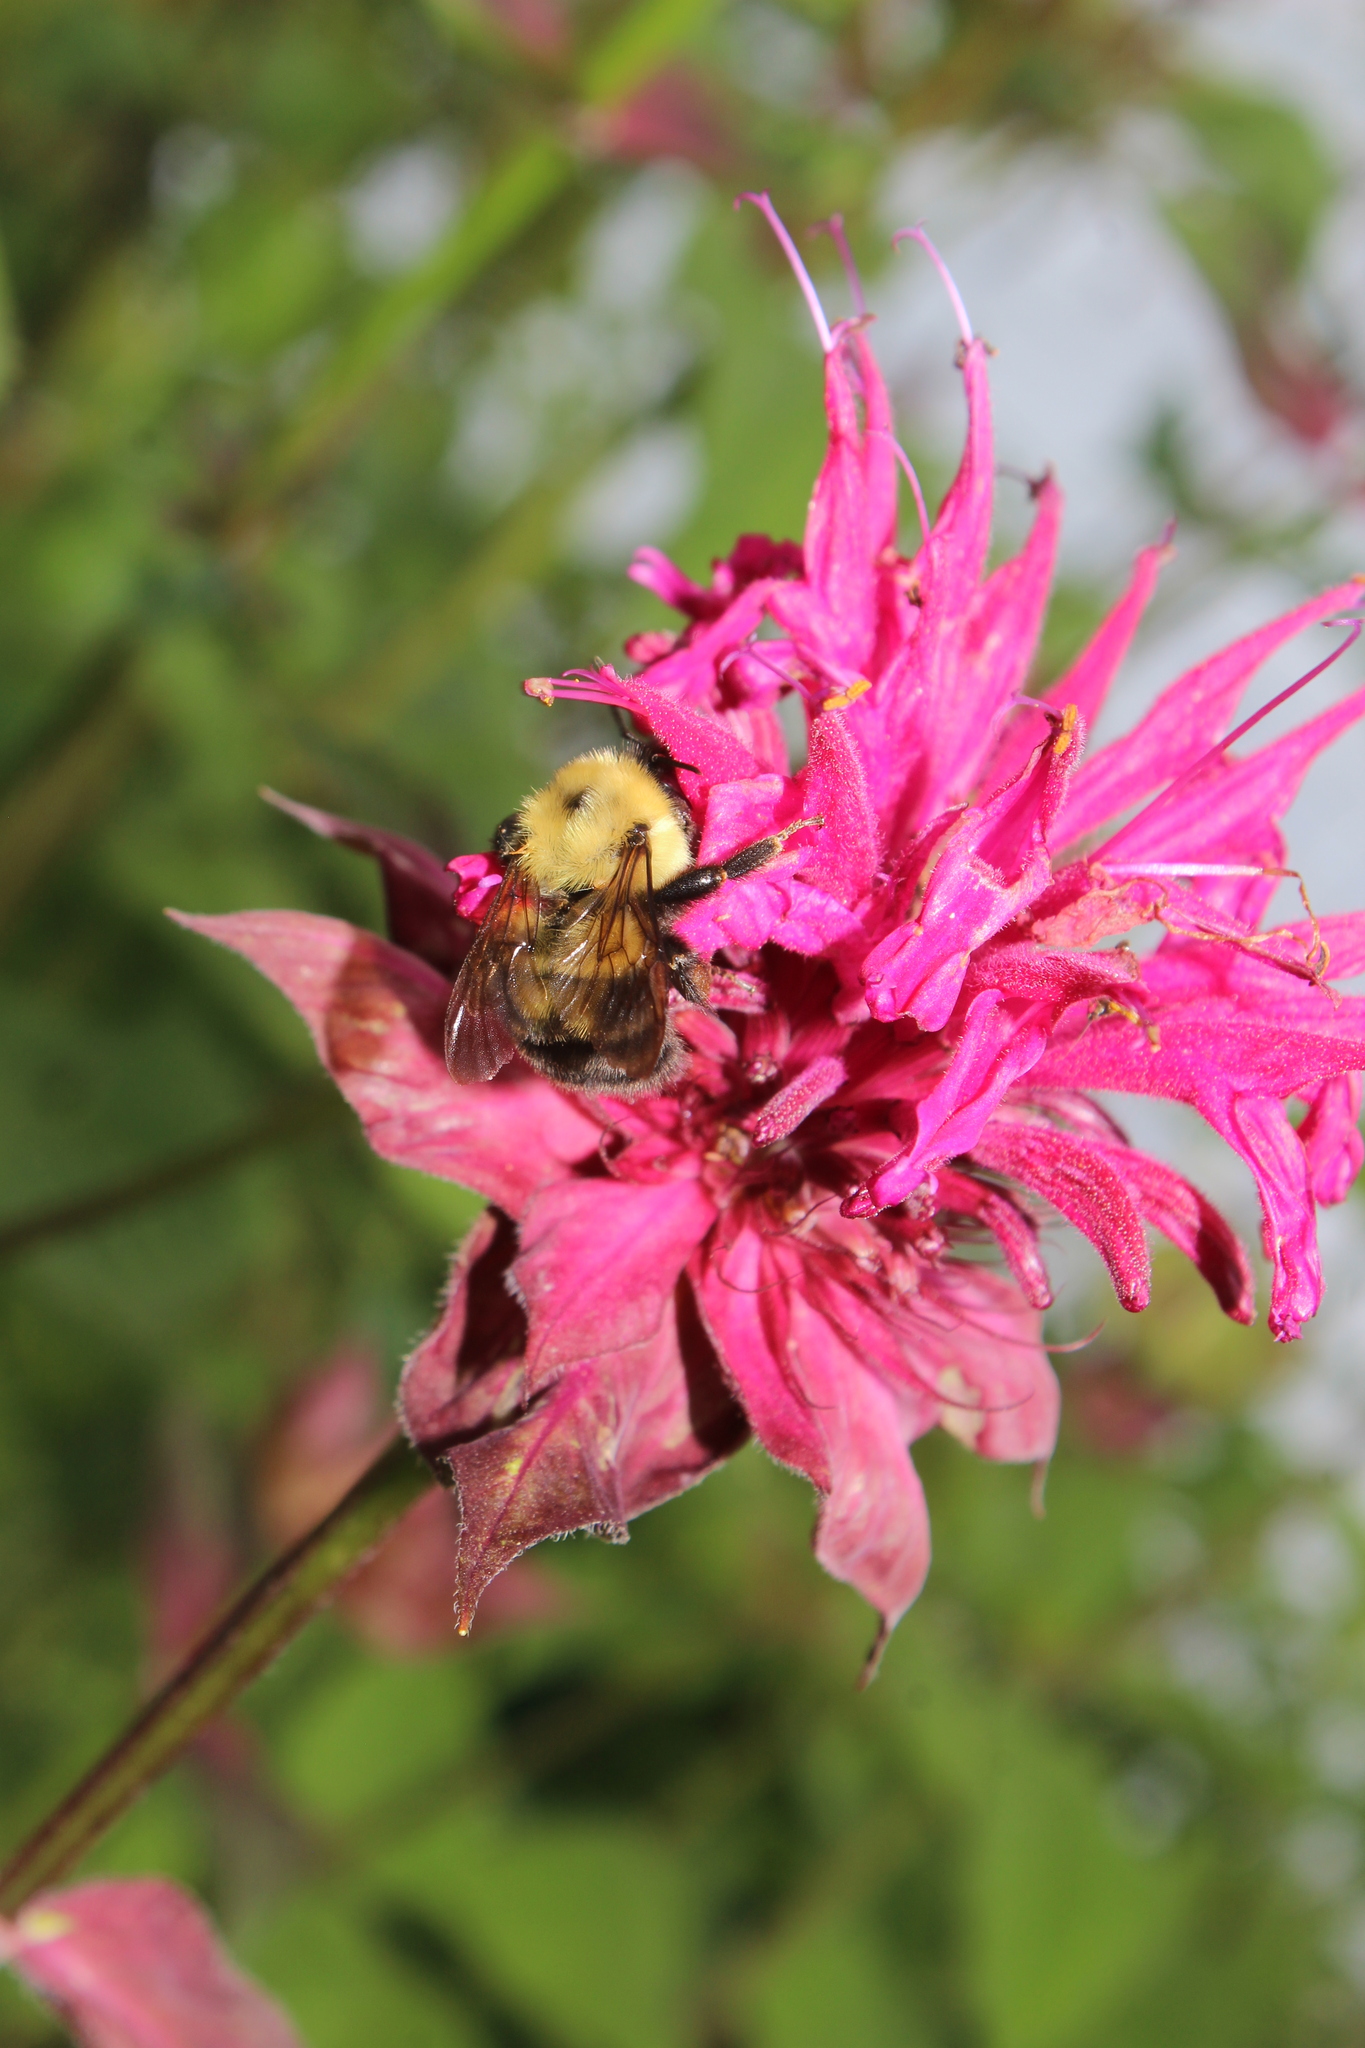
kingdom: Animalia
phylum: Arthropoda
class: Insecta
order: Hymenoptera
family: Apidae
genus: Bombus
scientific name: Bombus bimaculatus
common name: Two-spotted bumble bee
